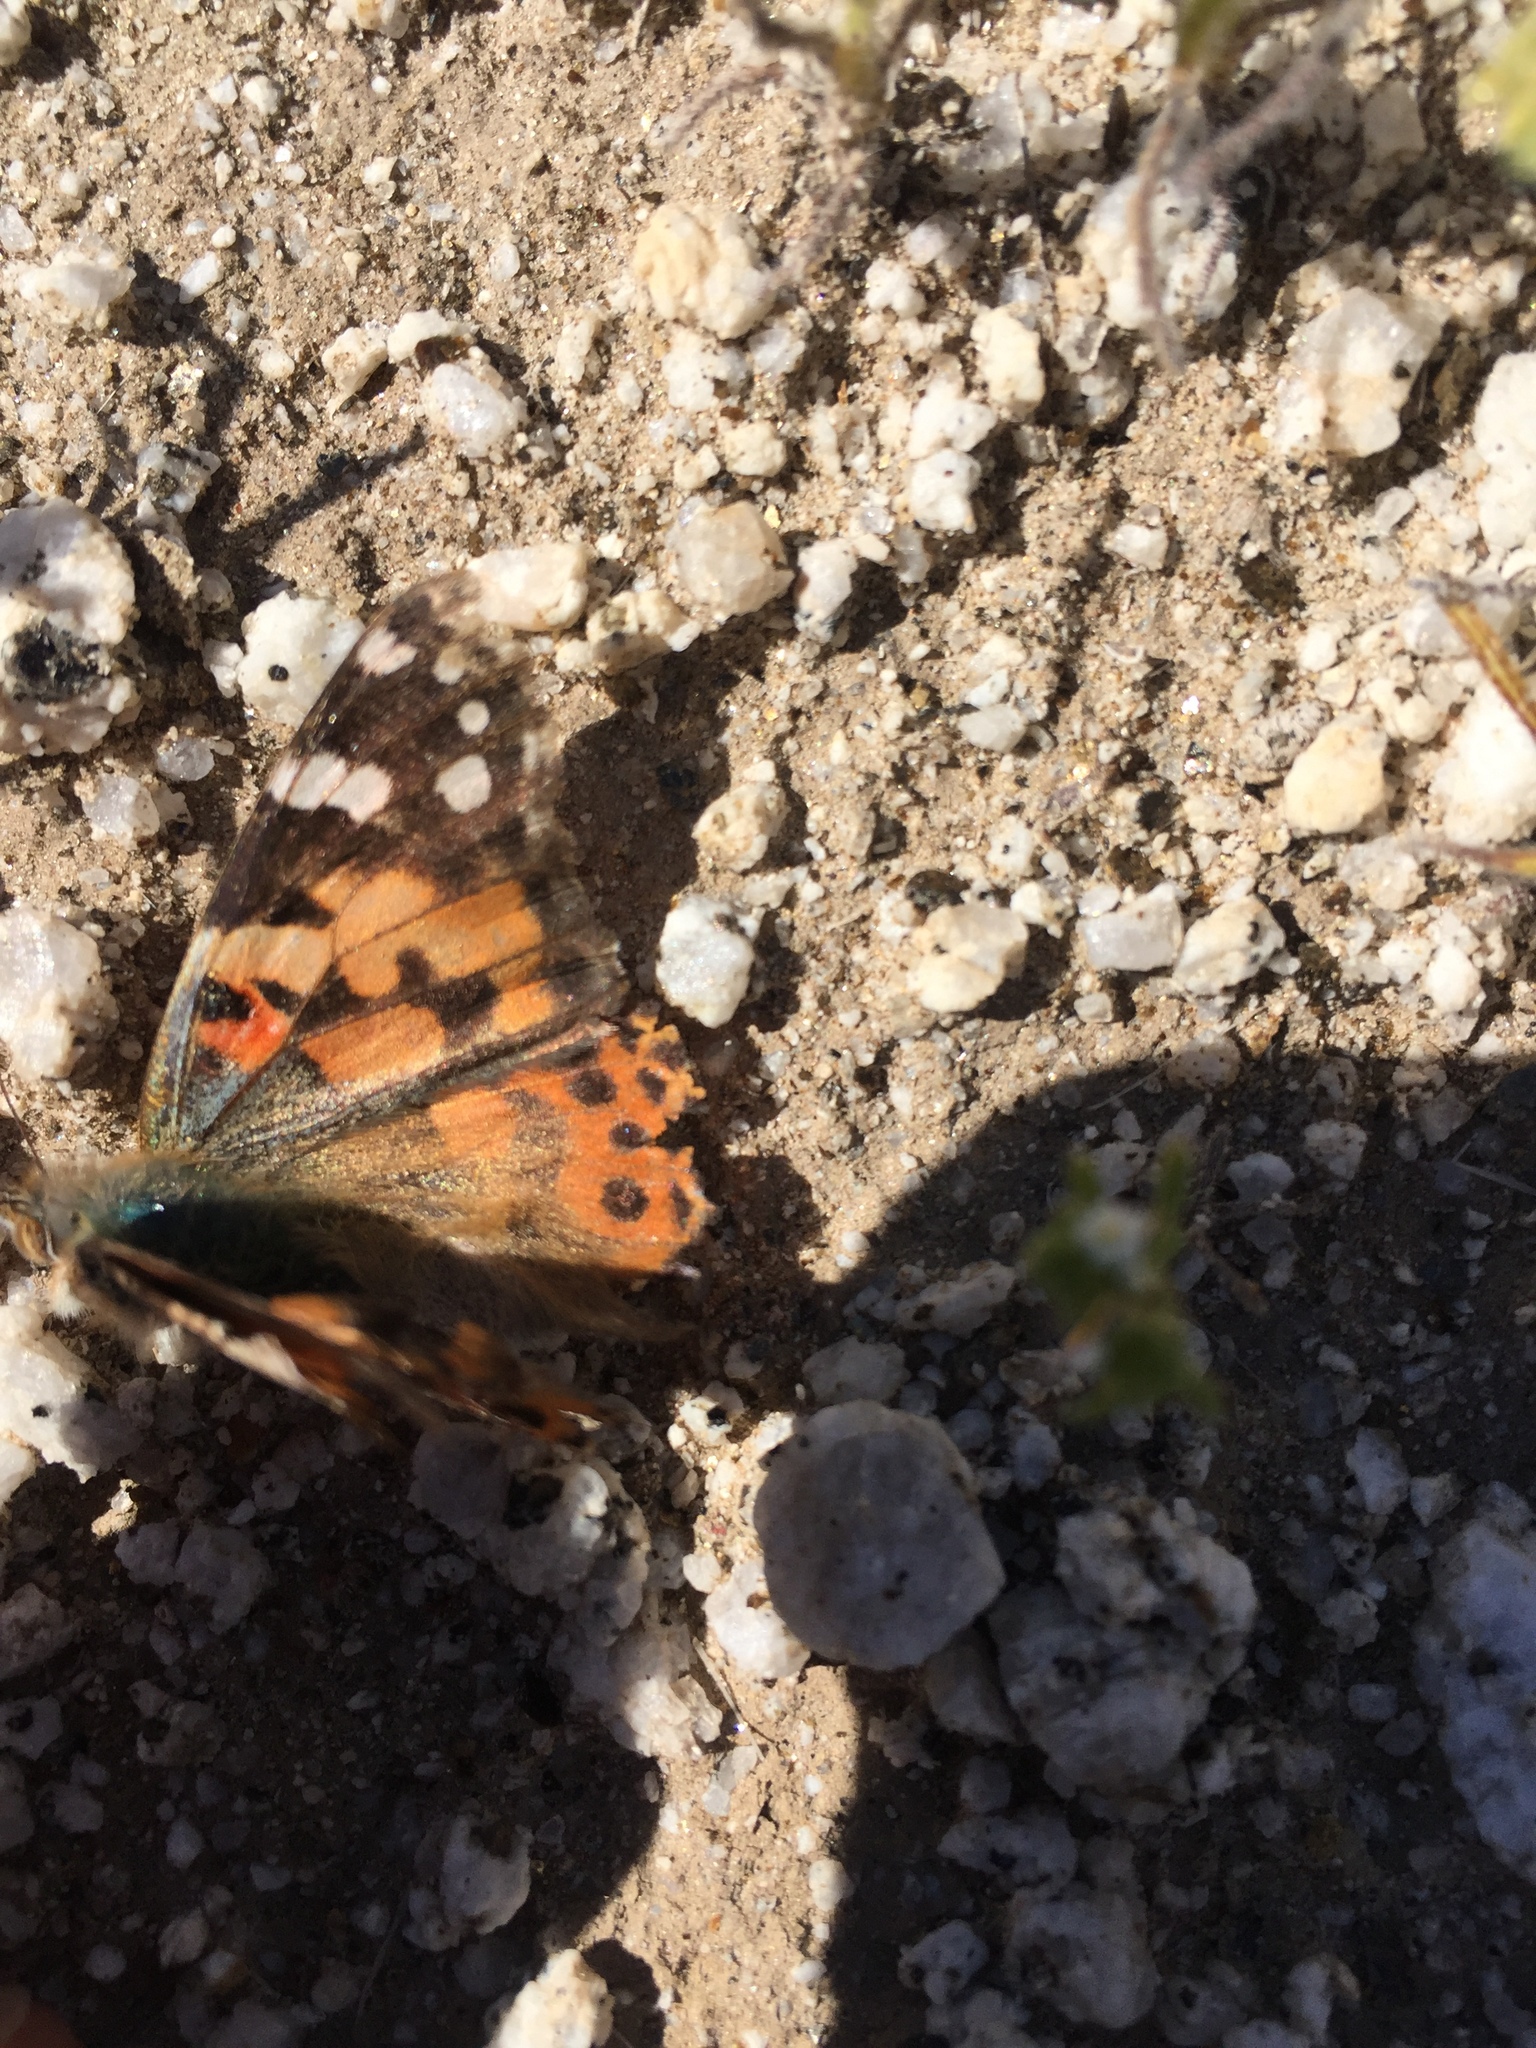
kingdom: Animalia
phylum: Arthropoda
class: Insecta
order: Lepidoptera
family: Nymphalidae
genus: Vanessa
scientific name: Vanessa cardui
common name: Painted lady
